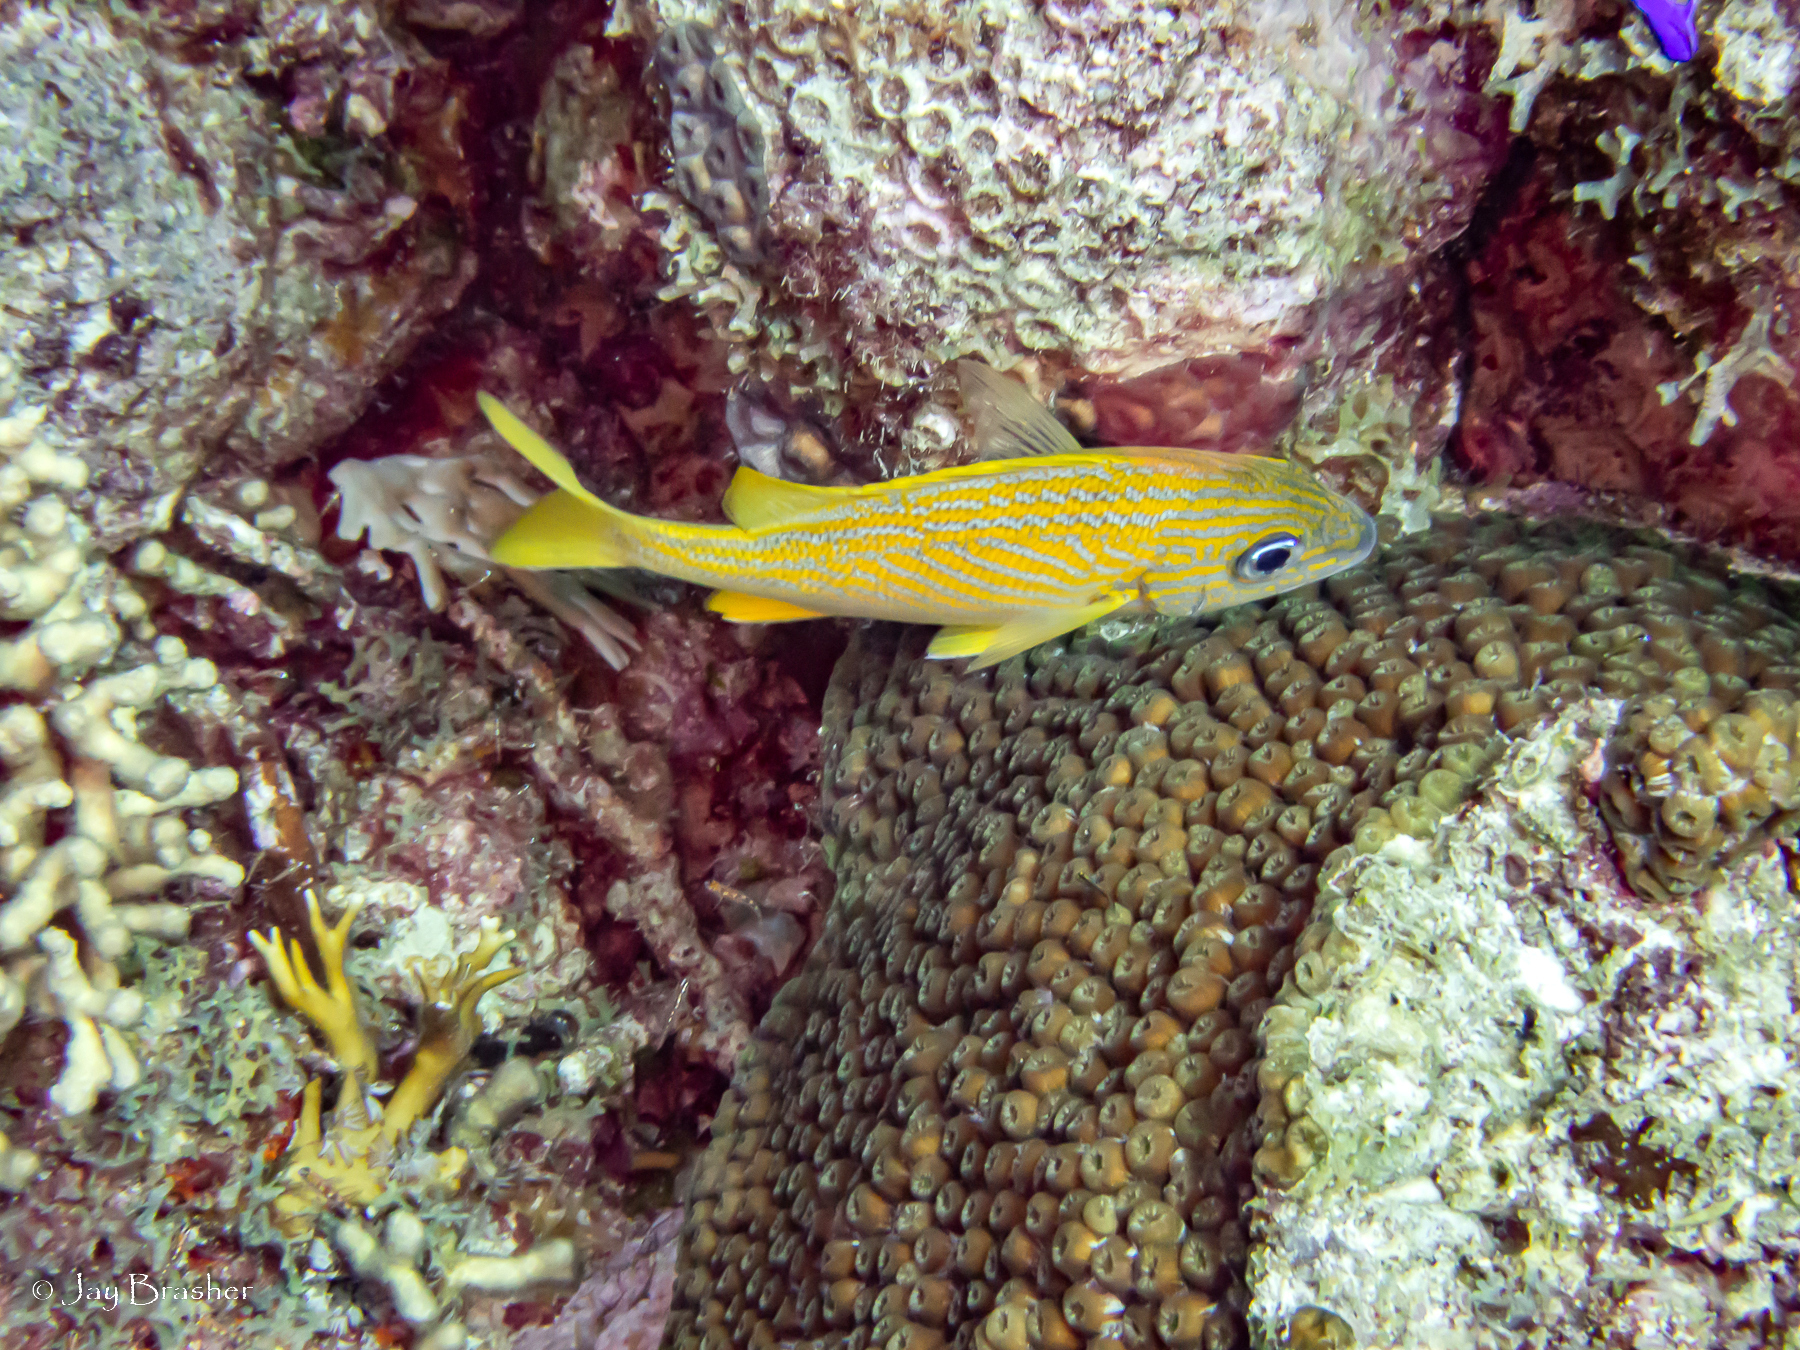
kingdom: Animalia
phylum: Chordata
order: Perciformes
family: Haemulidae
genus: Haemulon
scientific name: Haemulon flavolineatum
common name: French grunt
